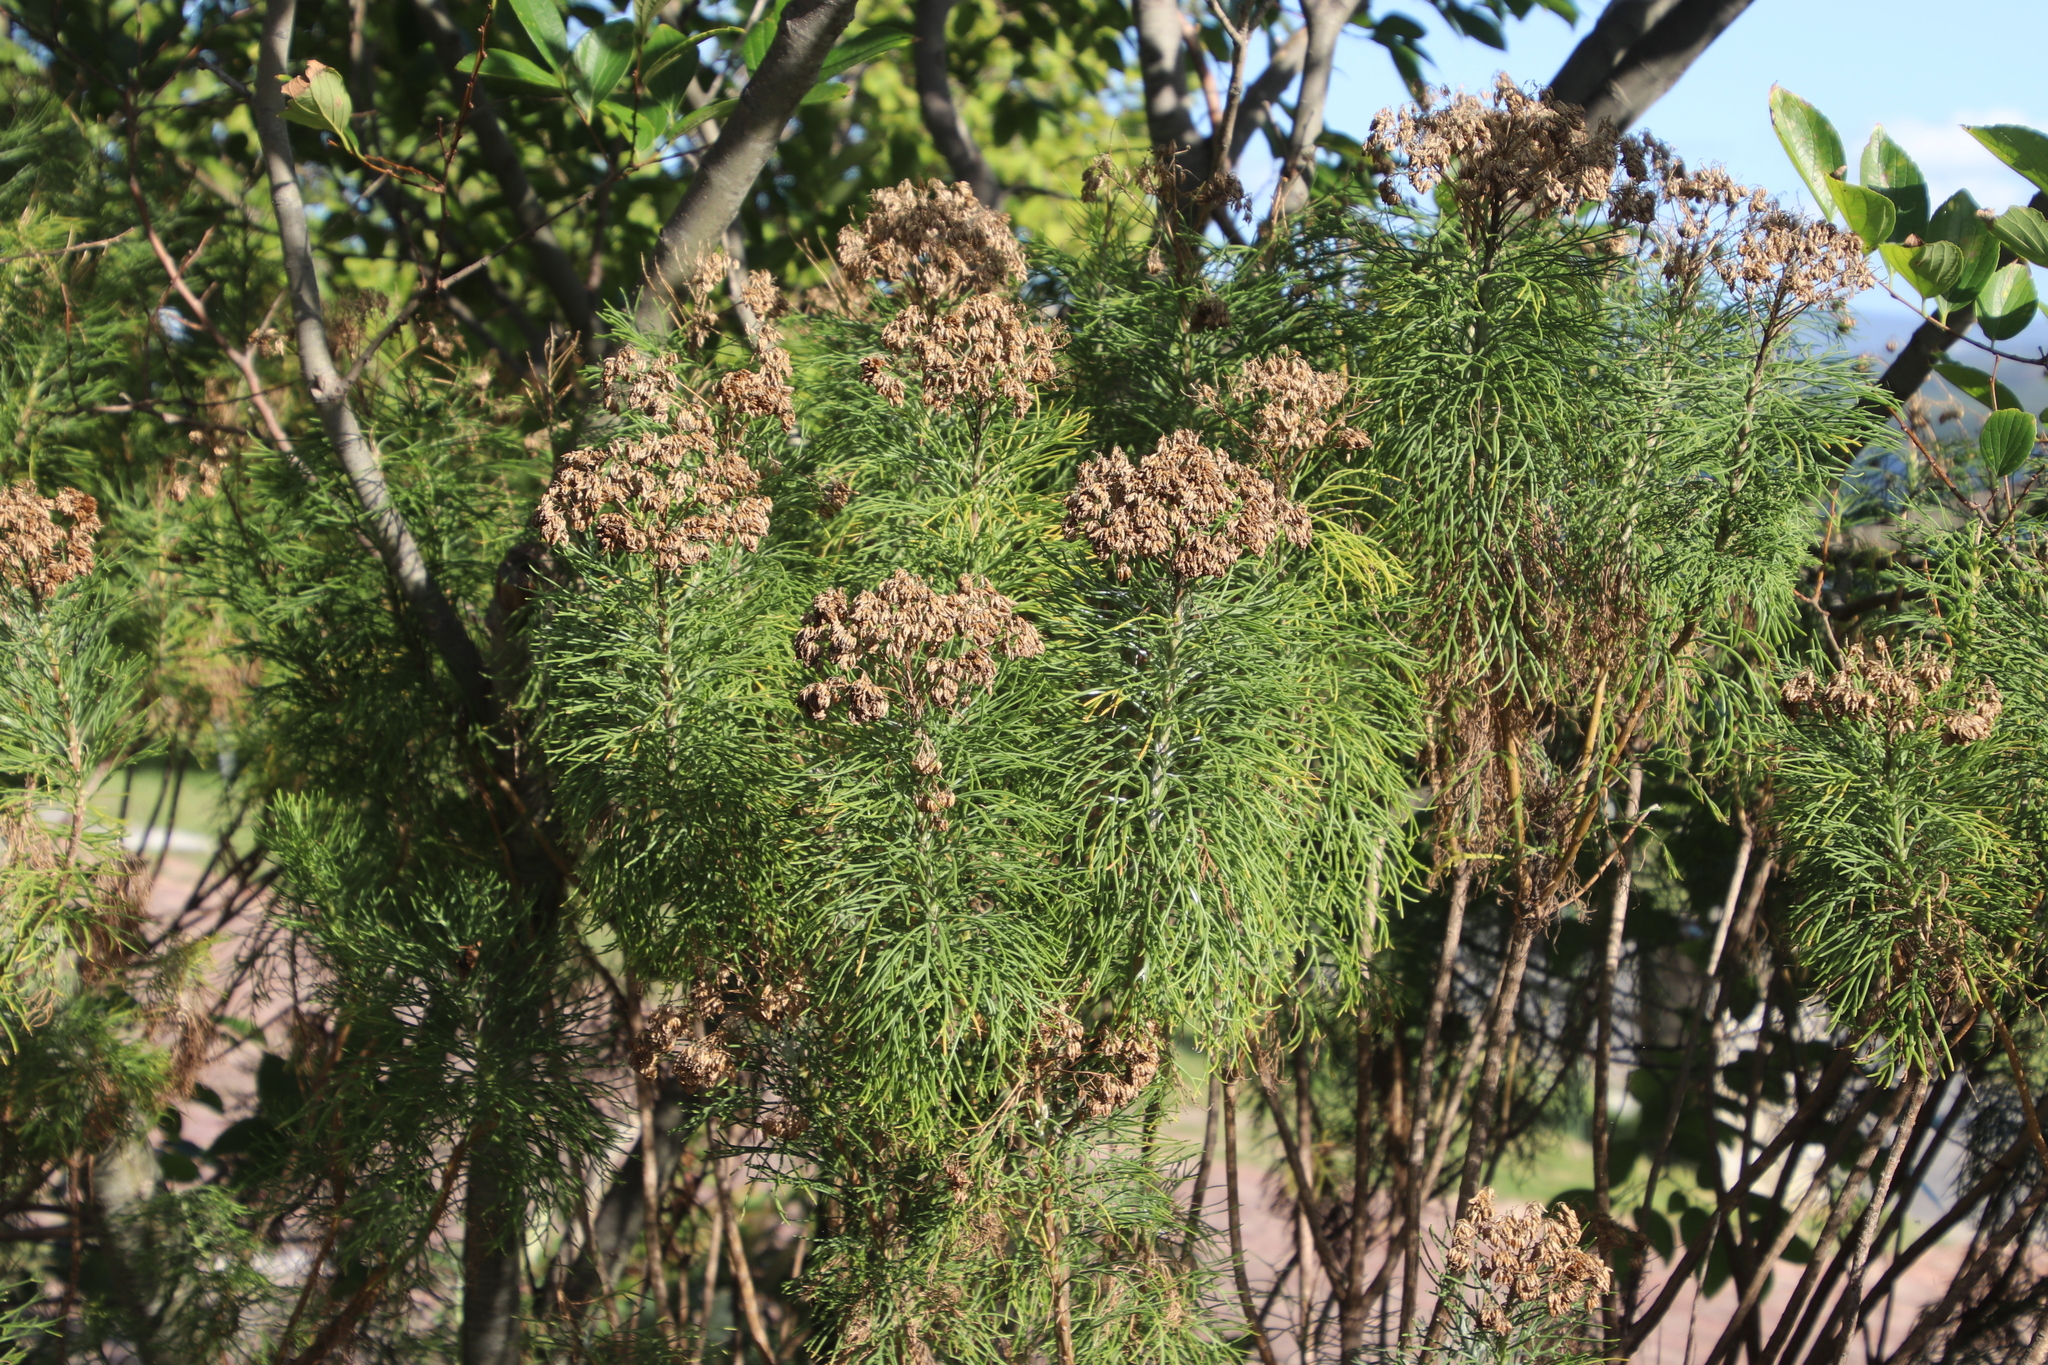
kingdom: Plantae
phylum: Tracheophyta
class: Magnoliopsida
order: Asterales
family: Asteraceae
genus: Hymenolepis
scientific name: Hymenolepis crithmifolia
